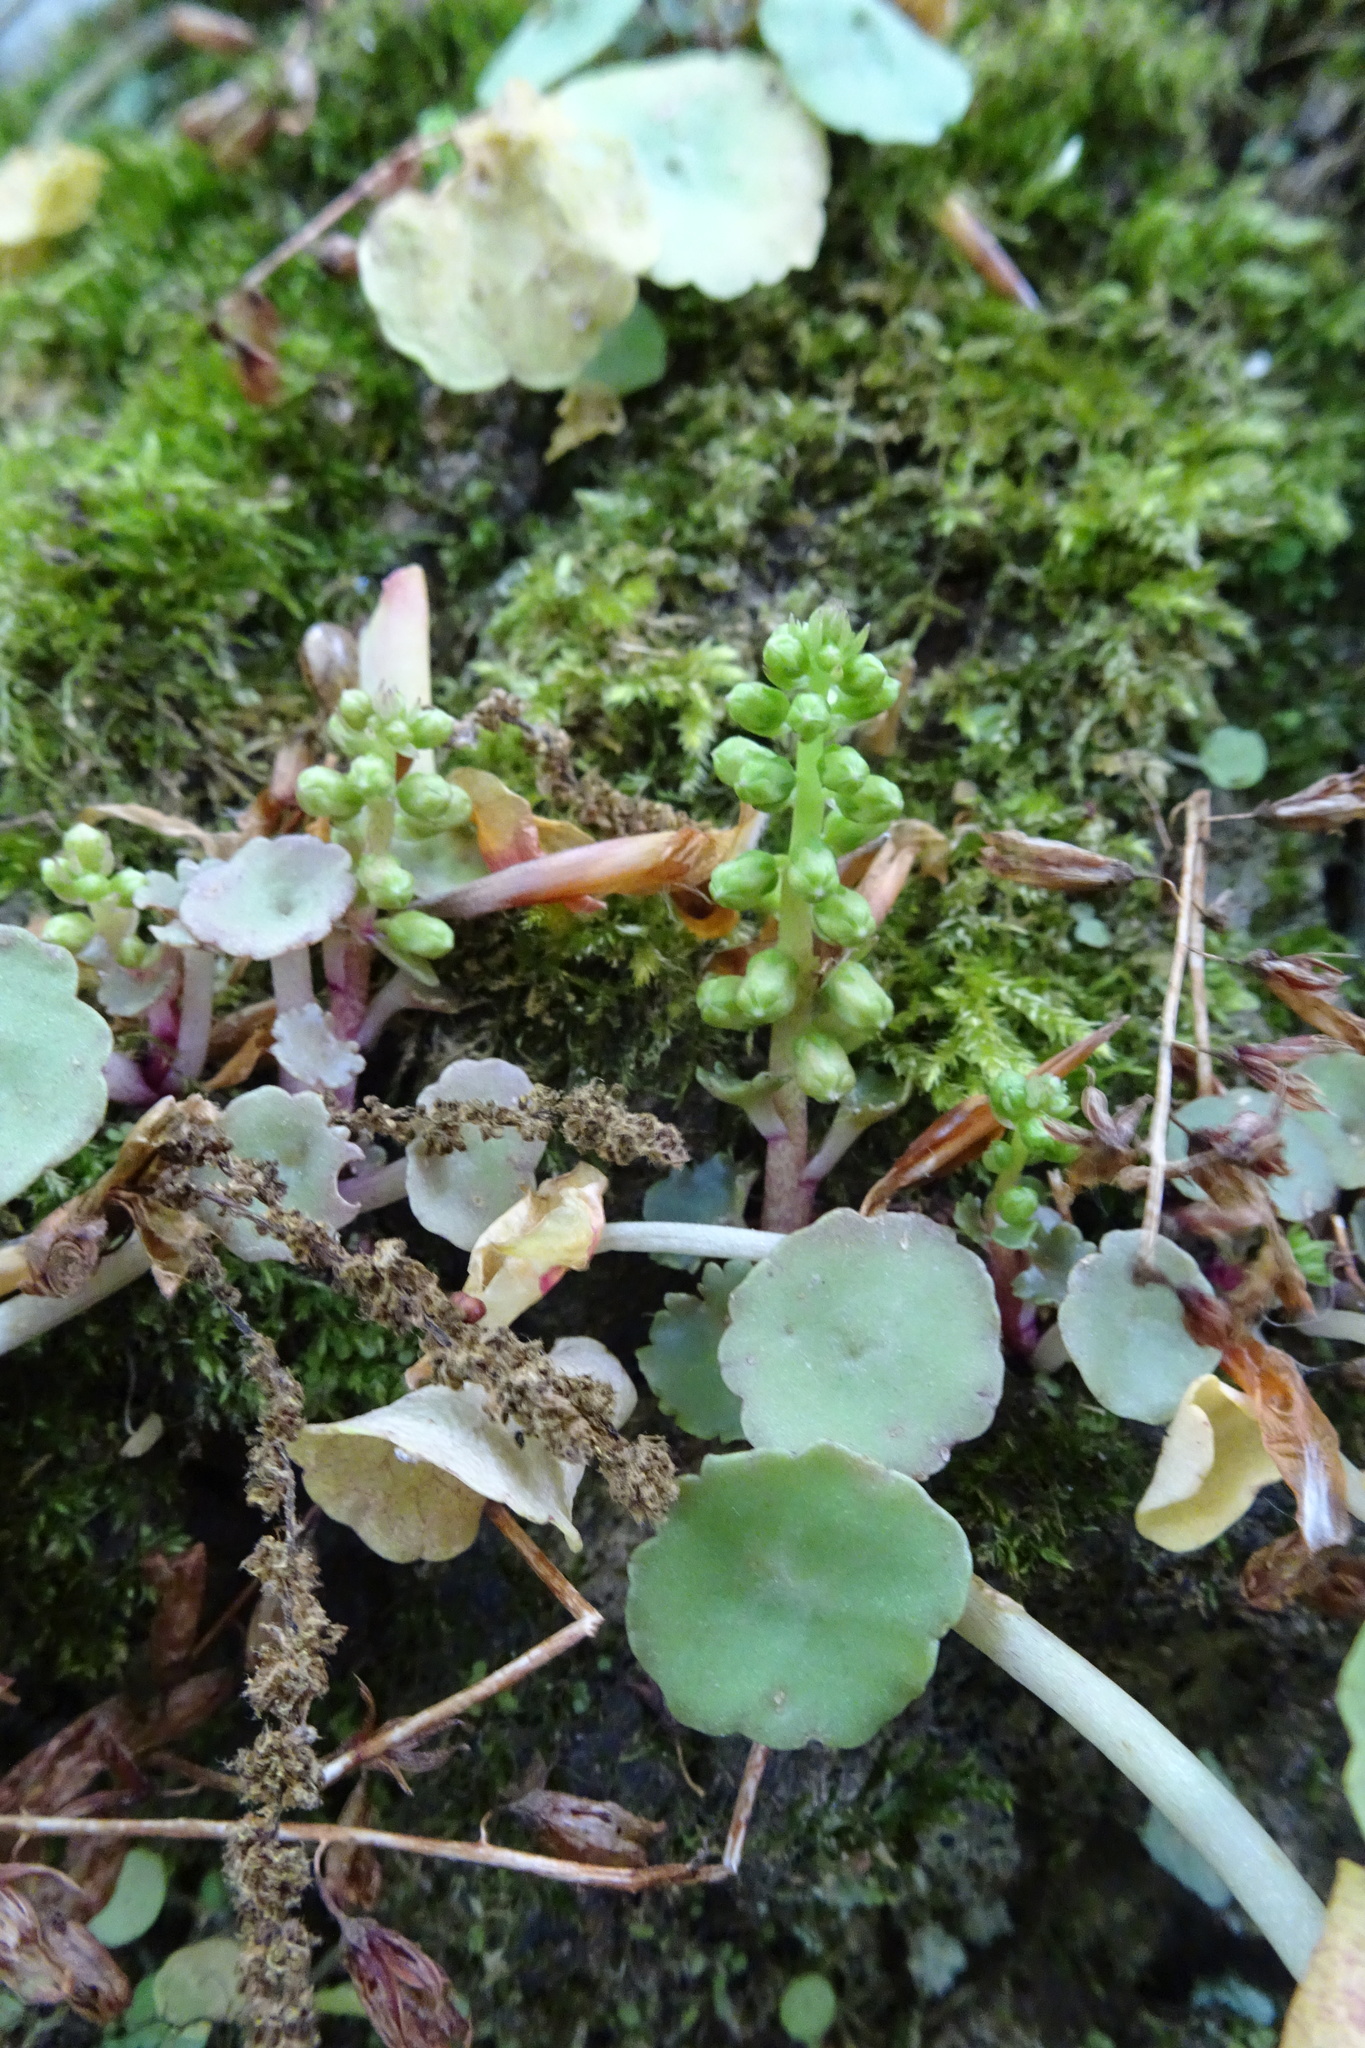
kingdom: Plantae
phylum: Tracheophyta
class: Magnoliopsida
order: Saxifragales
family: Crassulaceae
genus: Umbilicus
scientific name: Umbilicus rupestris
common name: Navelwort
